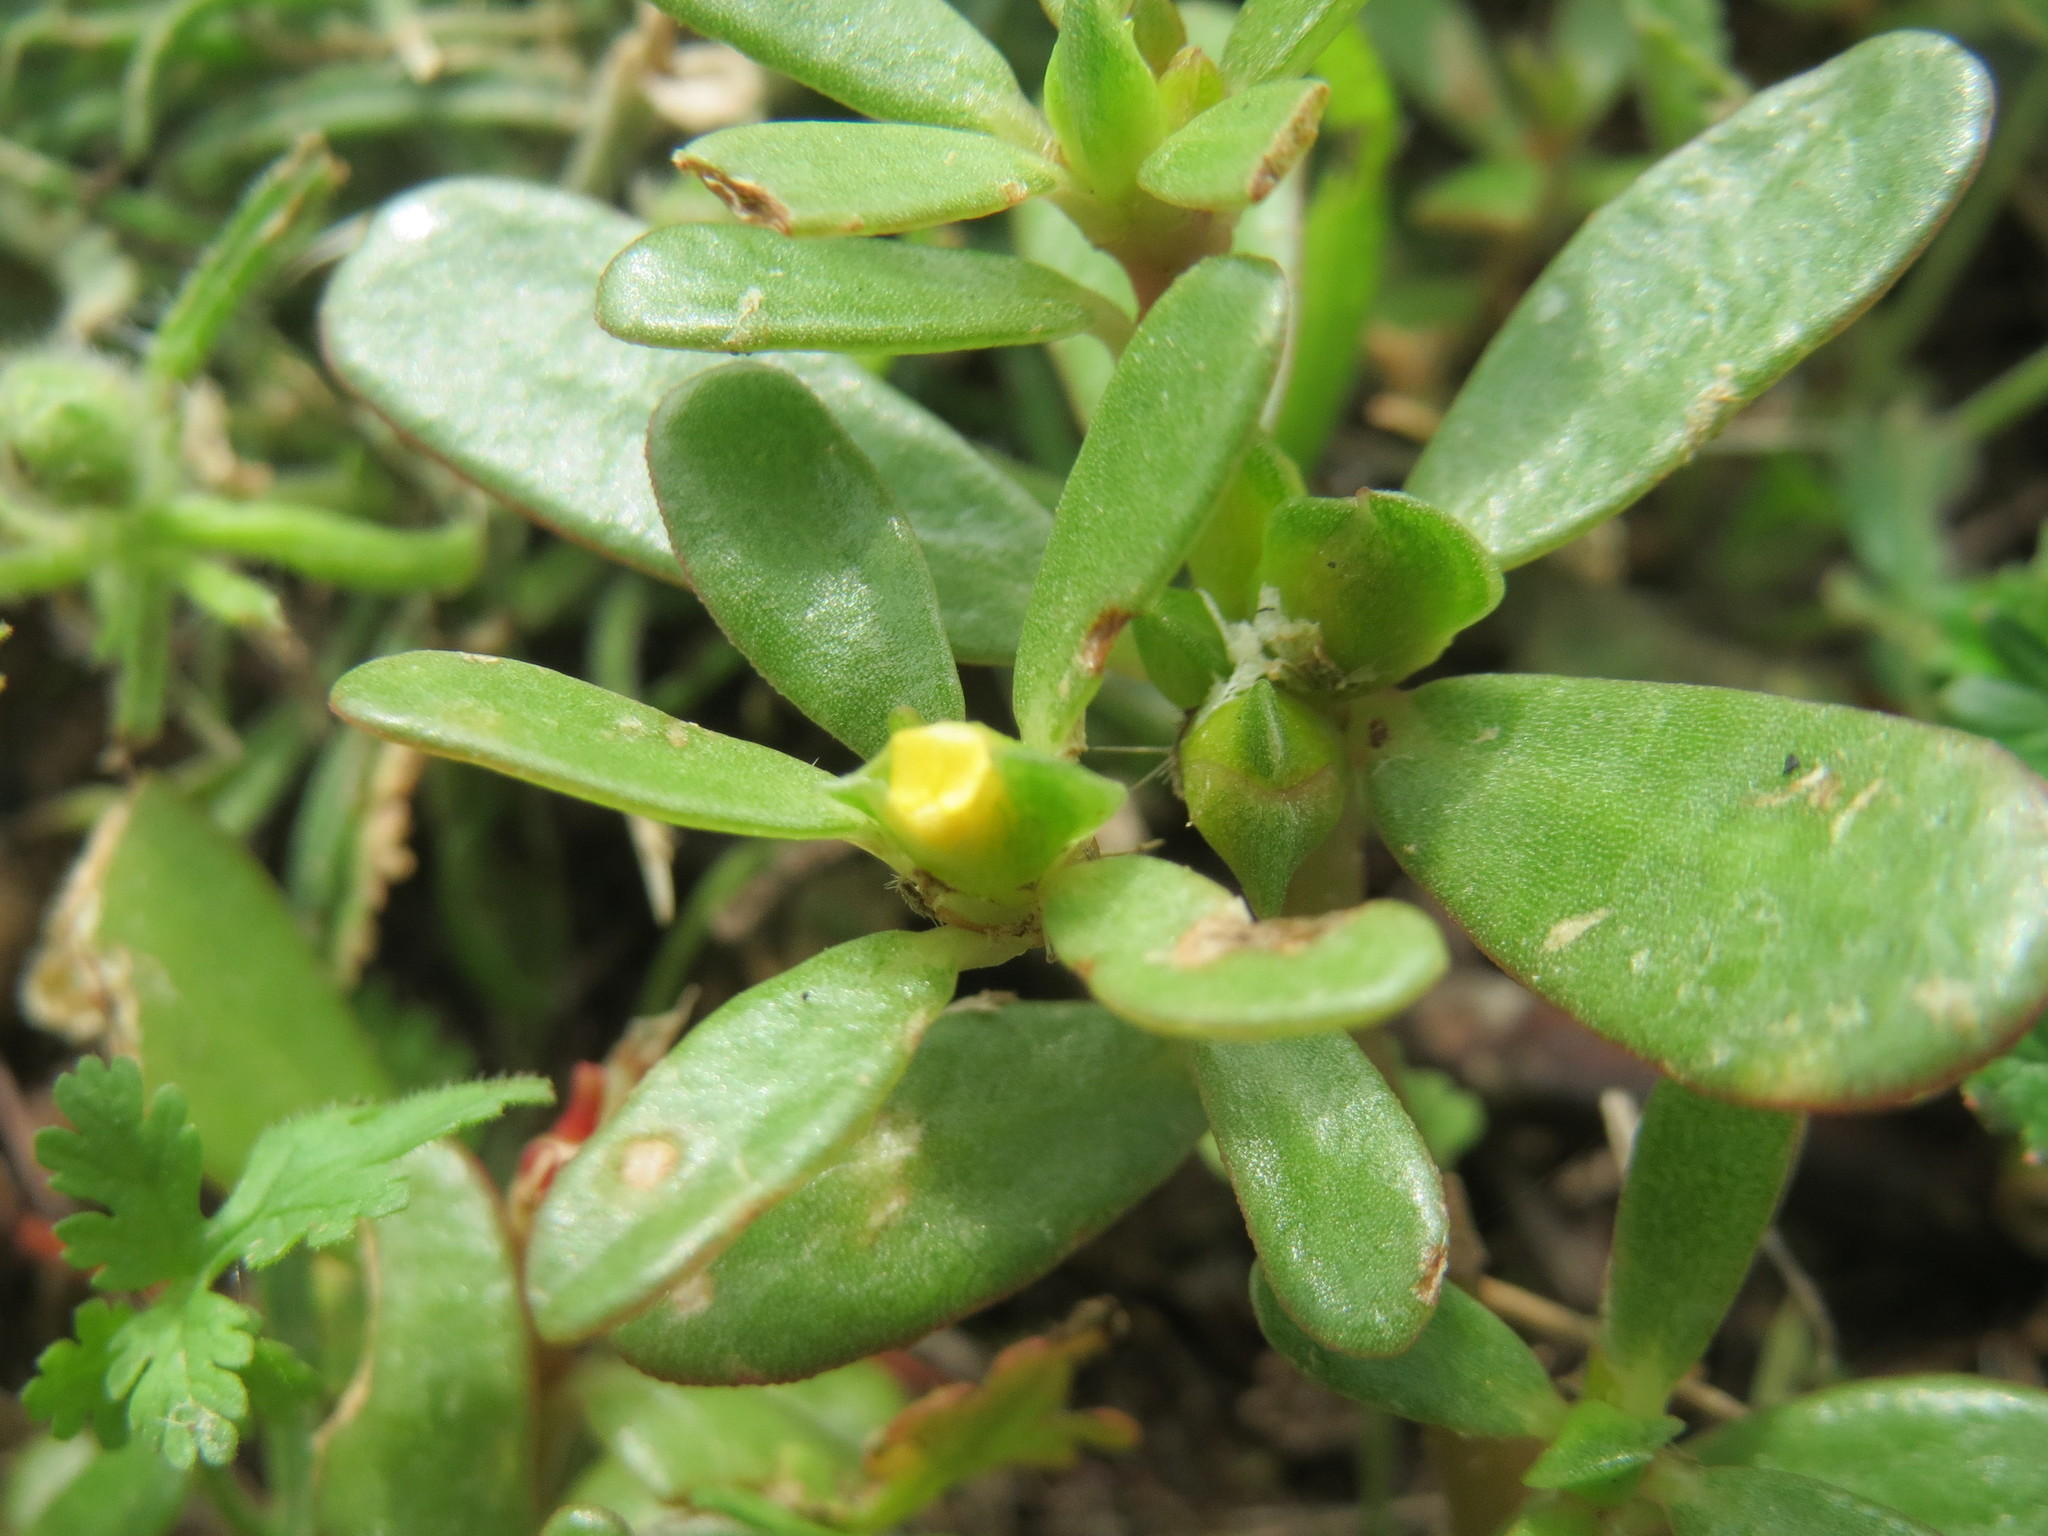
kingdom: Plantae
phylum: Tracheophyta
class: Magnoliopsida
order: Caryophyllales
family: Portulacaceae
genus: Portulaca
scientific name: Portulaca oleracea
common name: Common purslane
